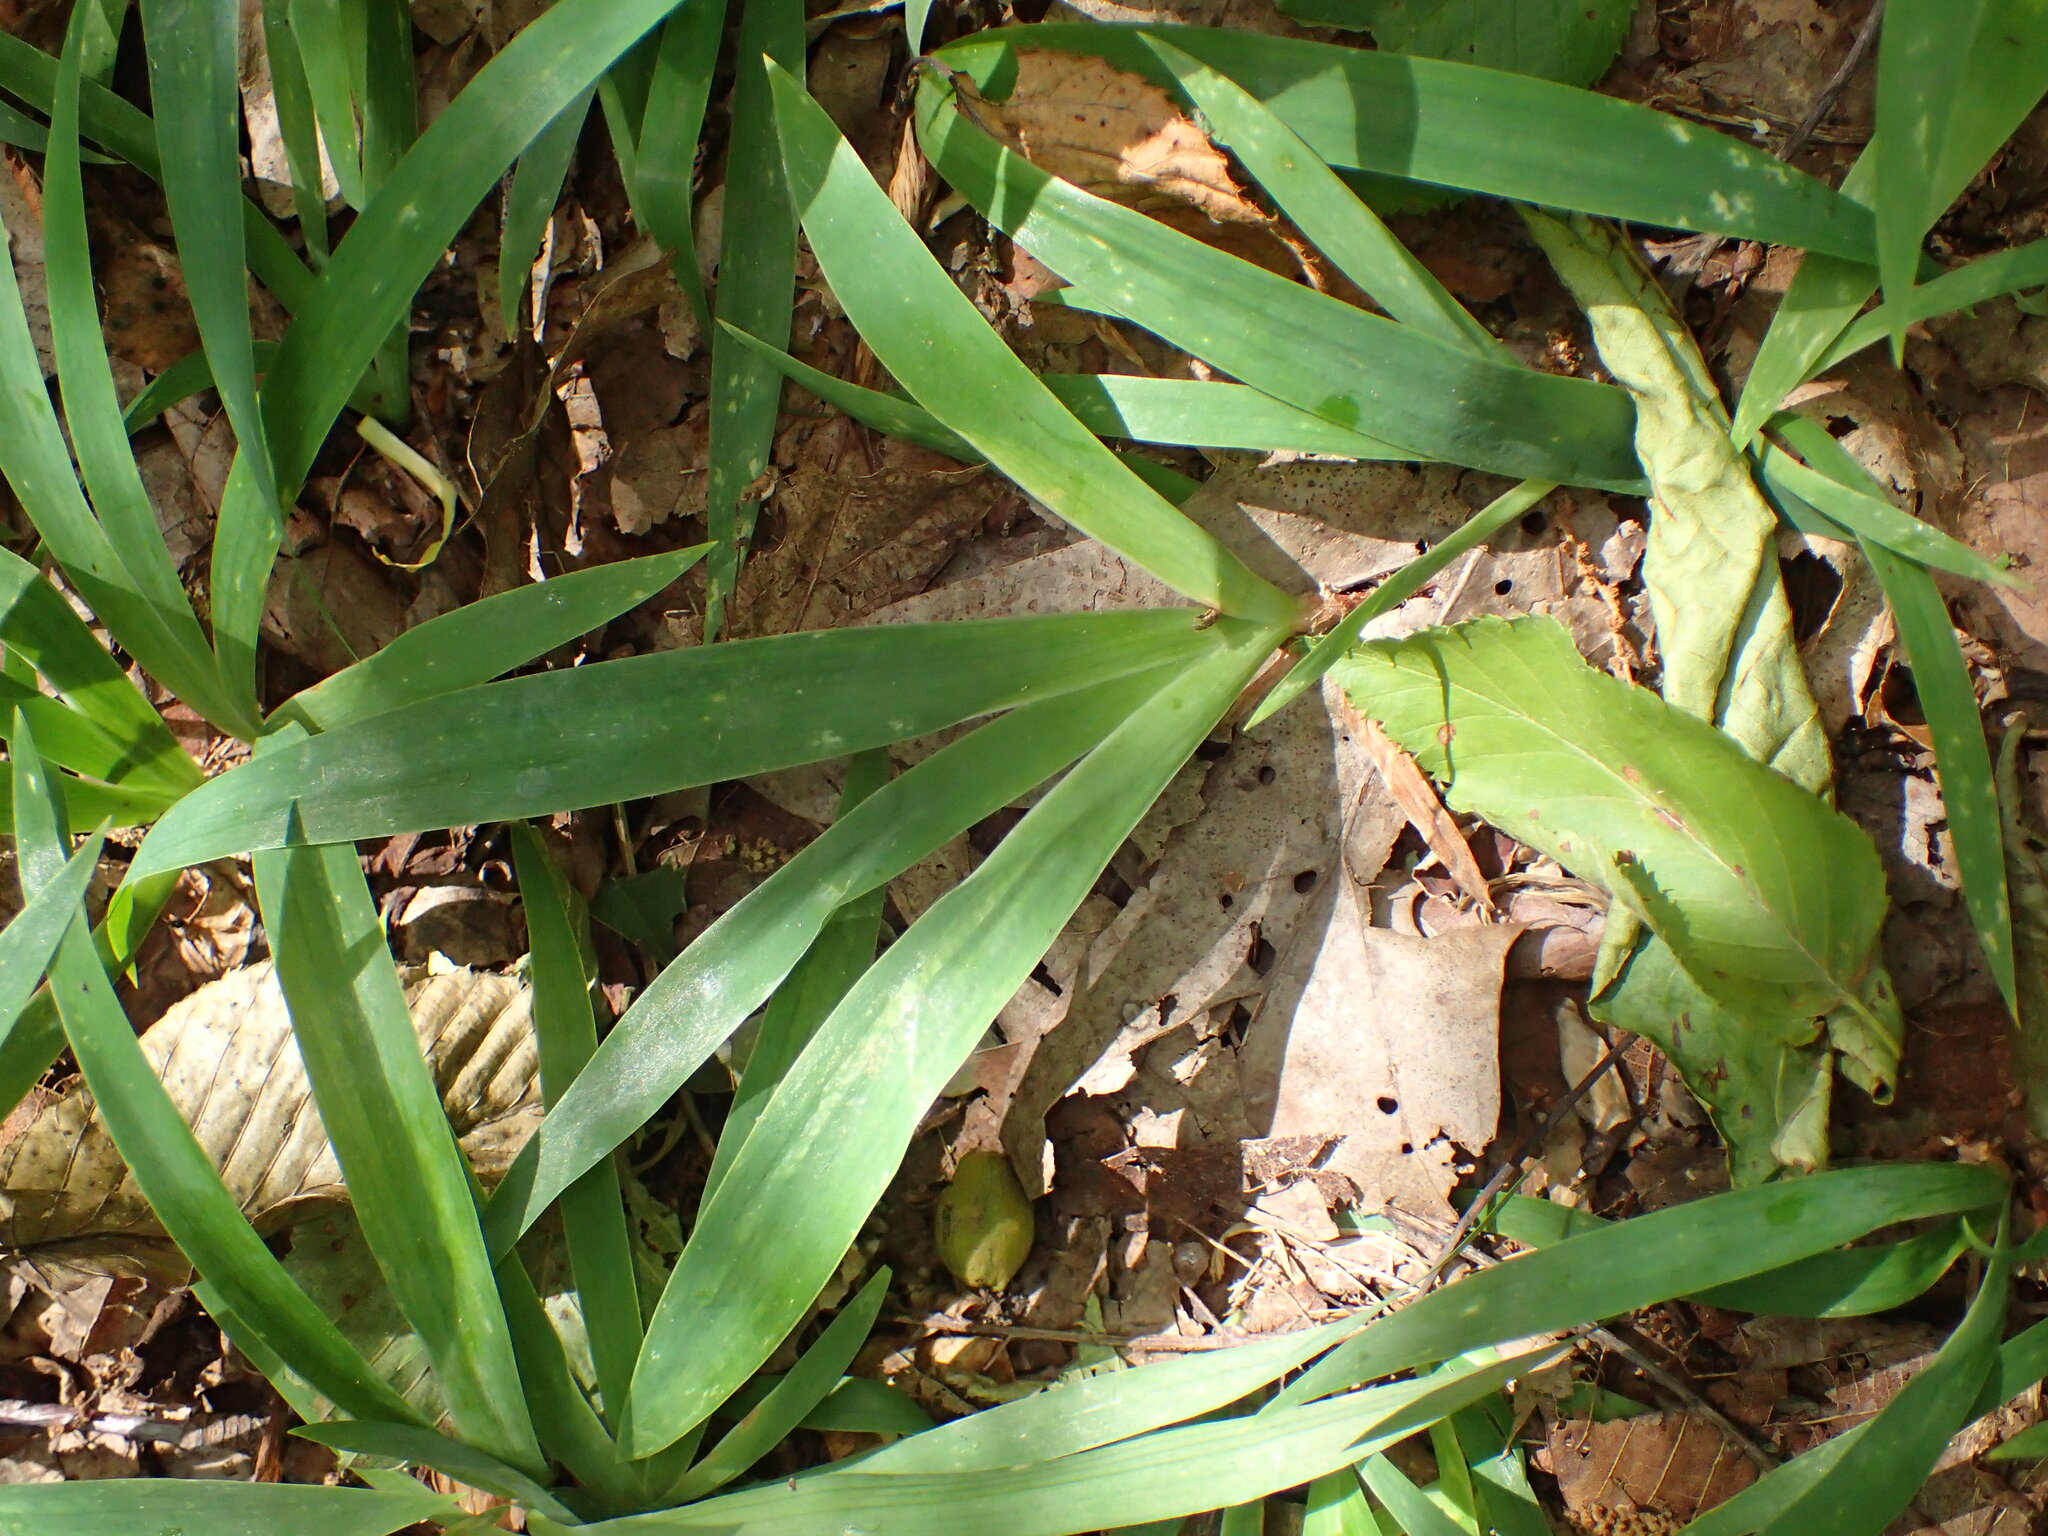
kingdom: Plantae
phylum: Tracheophyta
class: Liliopsida
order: Asparagales
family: Iridaceae
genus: Iris
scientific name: Iris cristata
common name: Crested iris
